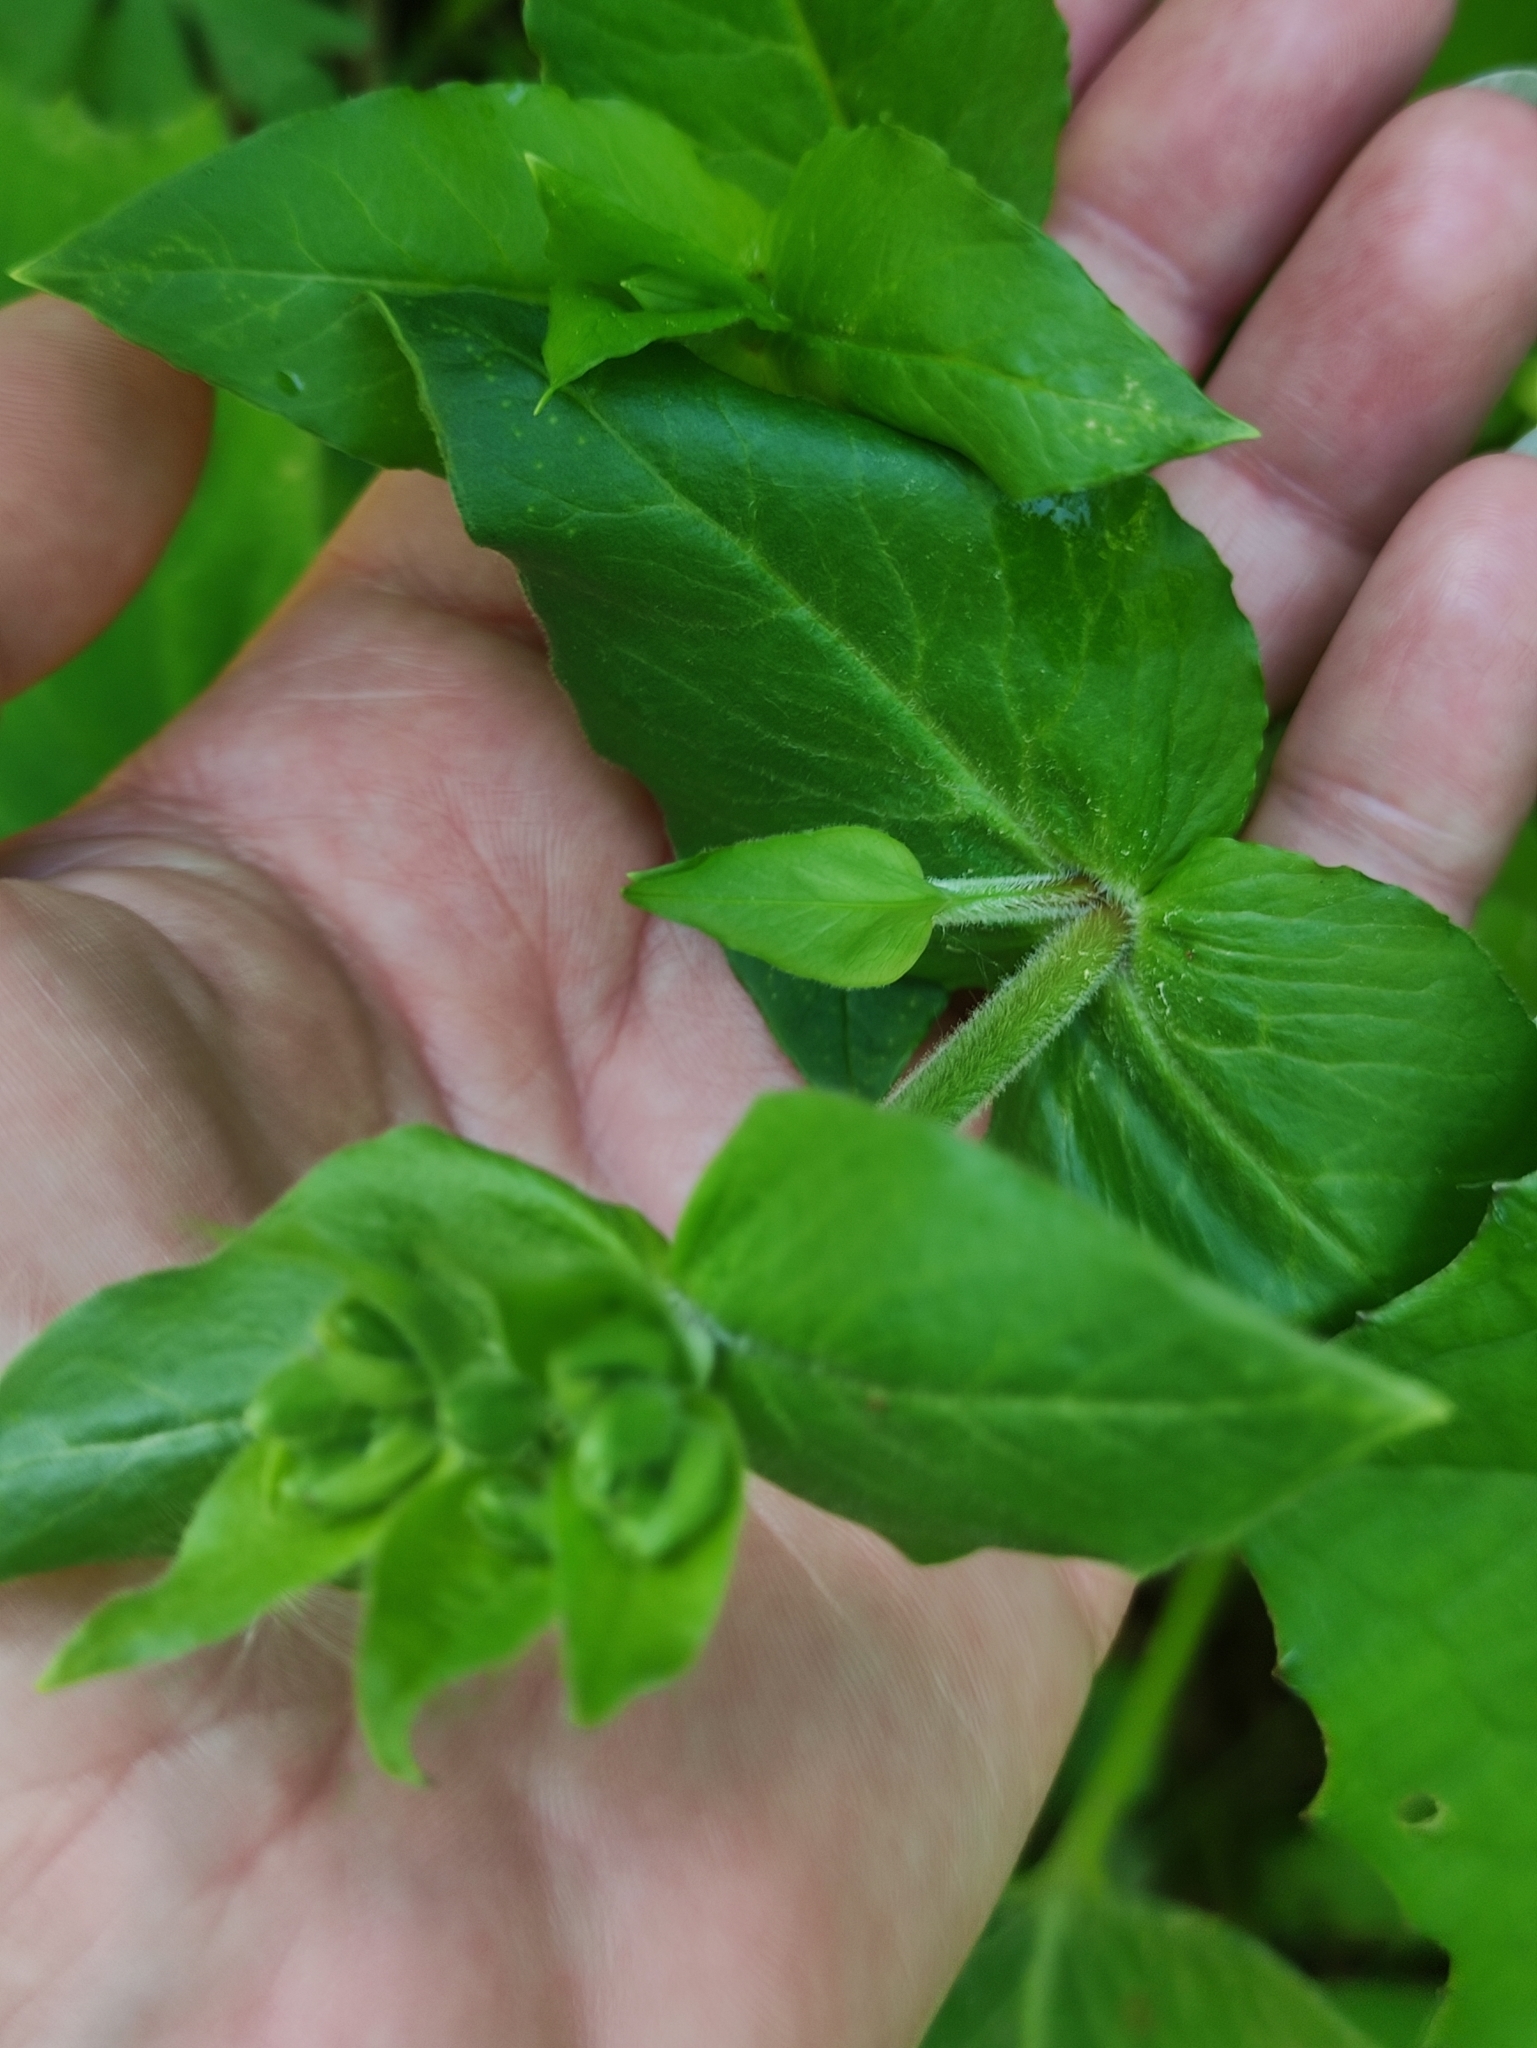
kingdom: Plantae
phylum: Tracheophyta
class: Magnoliopsida
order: Caryophyllales
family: Caryophyllaceae
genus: Stellaria
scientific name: Stellaria aquatica
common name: Water chickweed
